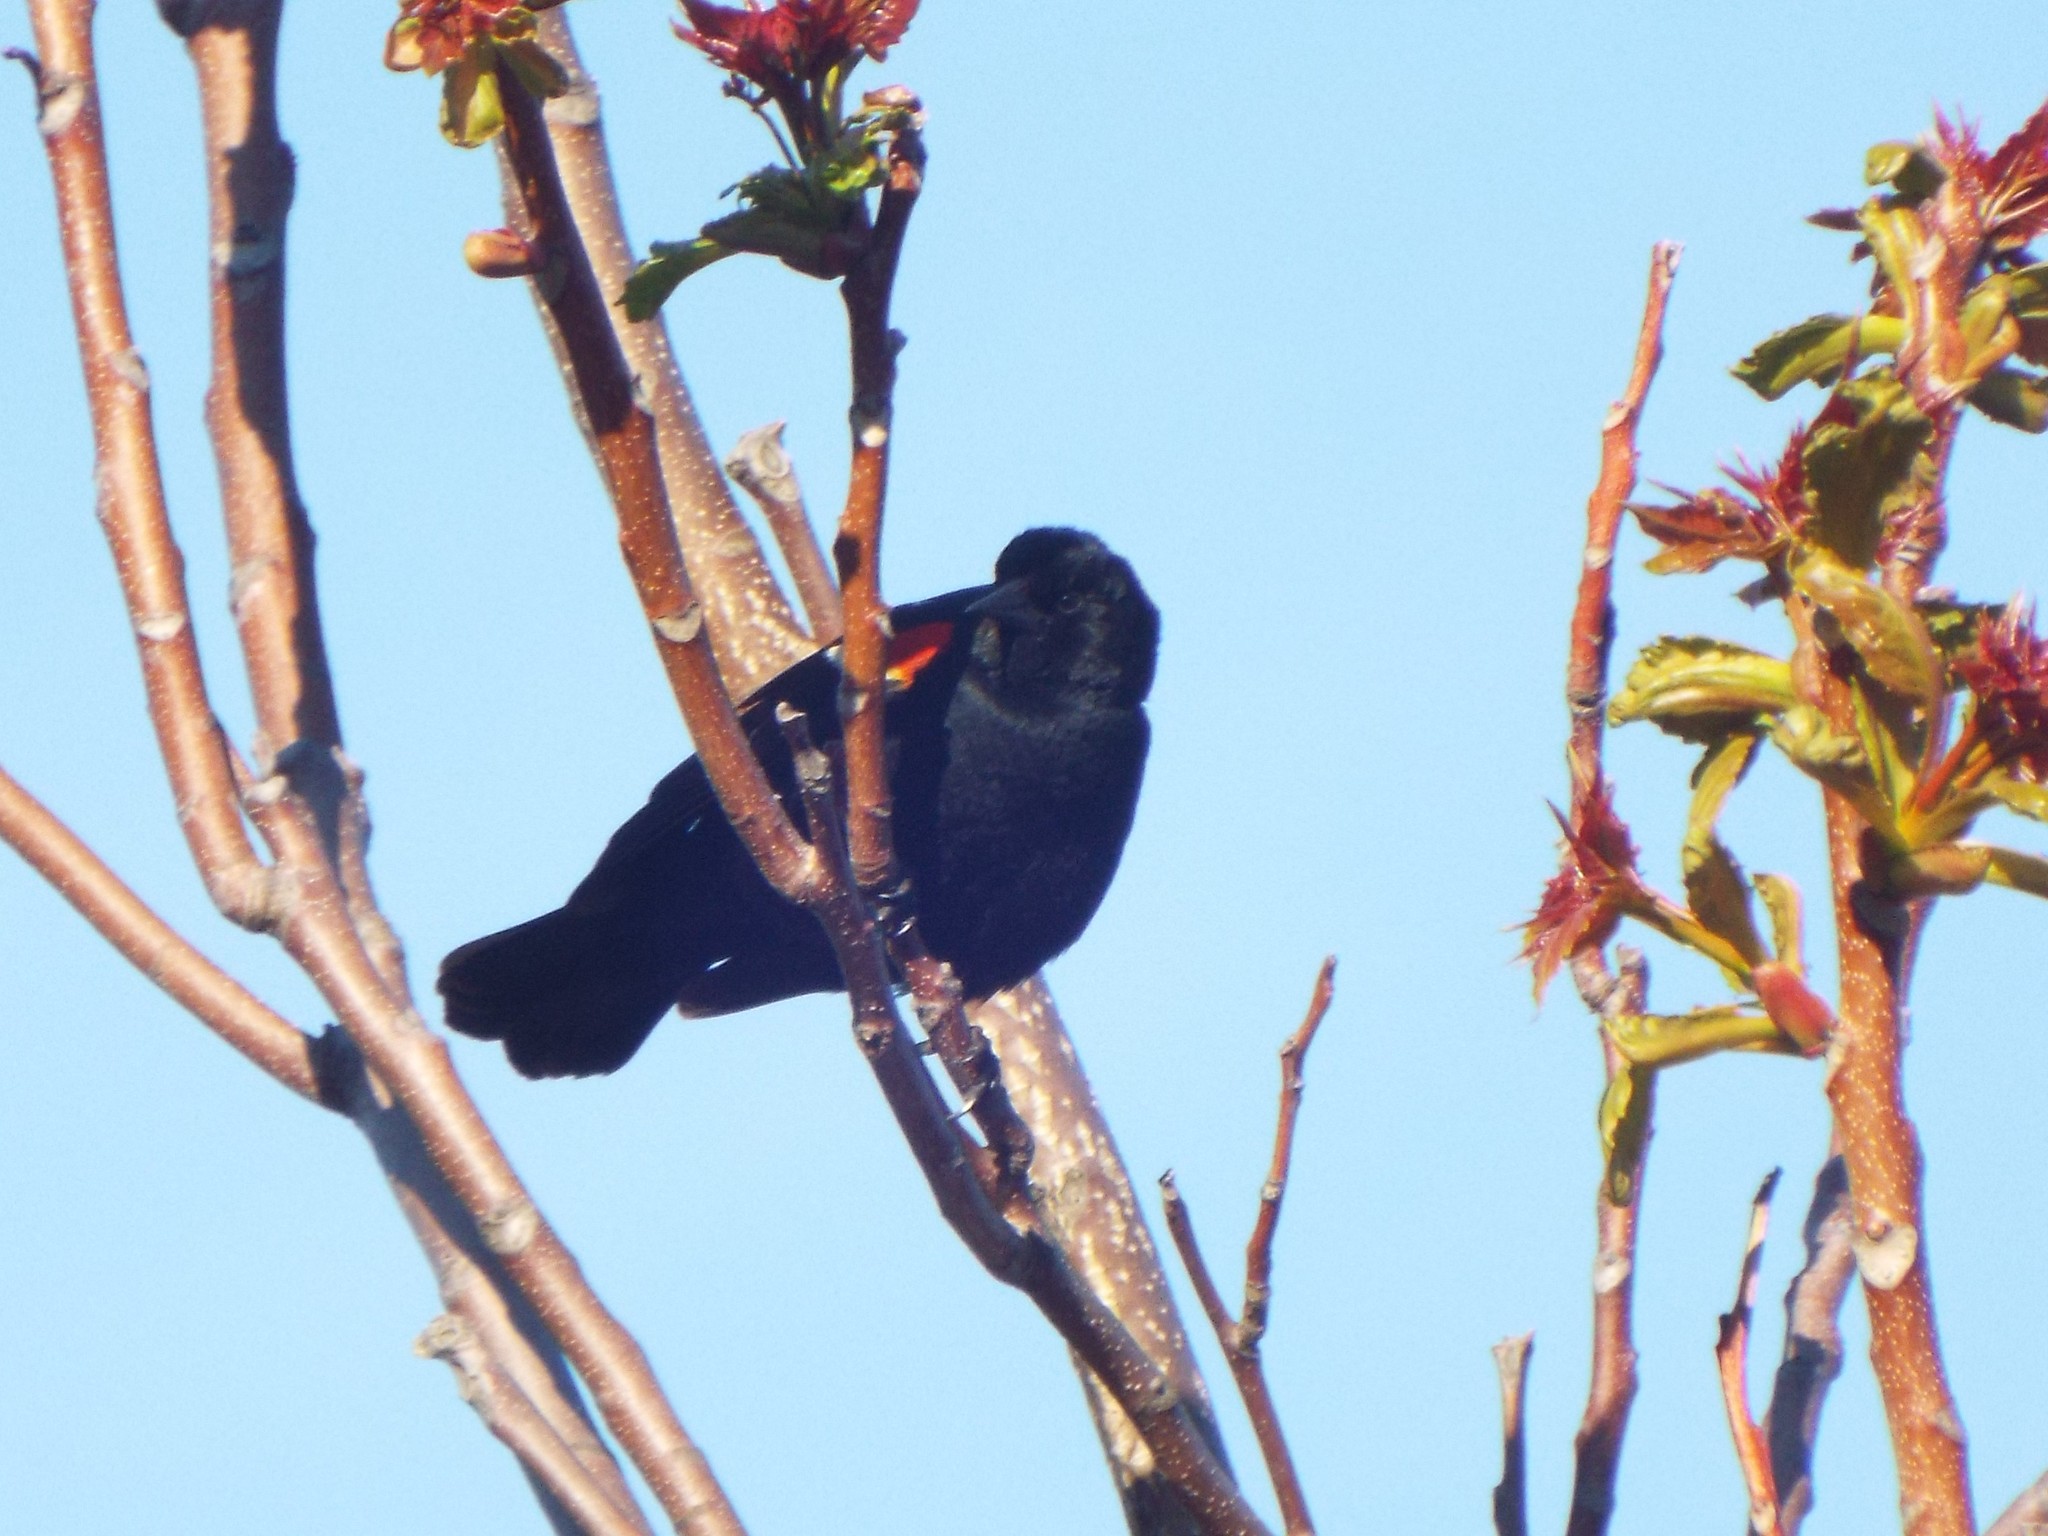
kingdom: Animalia
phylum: Chordata
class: Aves
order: Passeriformes
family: Icteridae
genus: Agelaius
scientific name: Agelaius phoeniceus
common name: Red-winged blackbird
